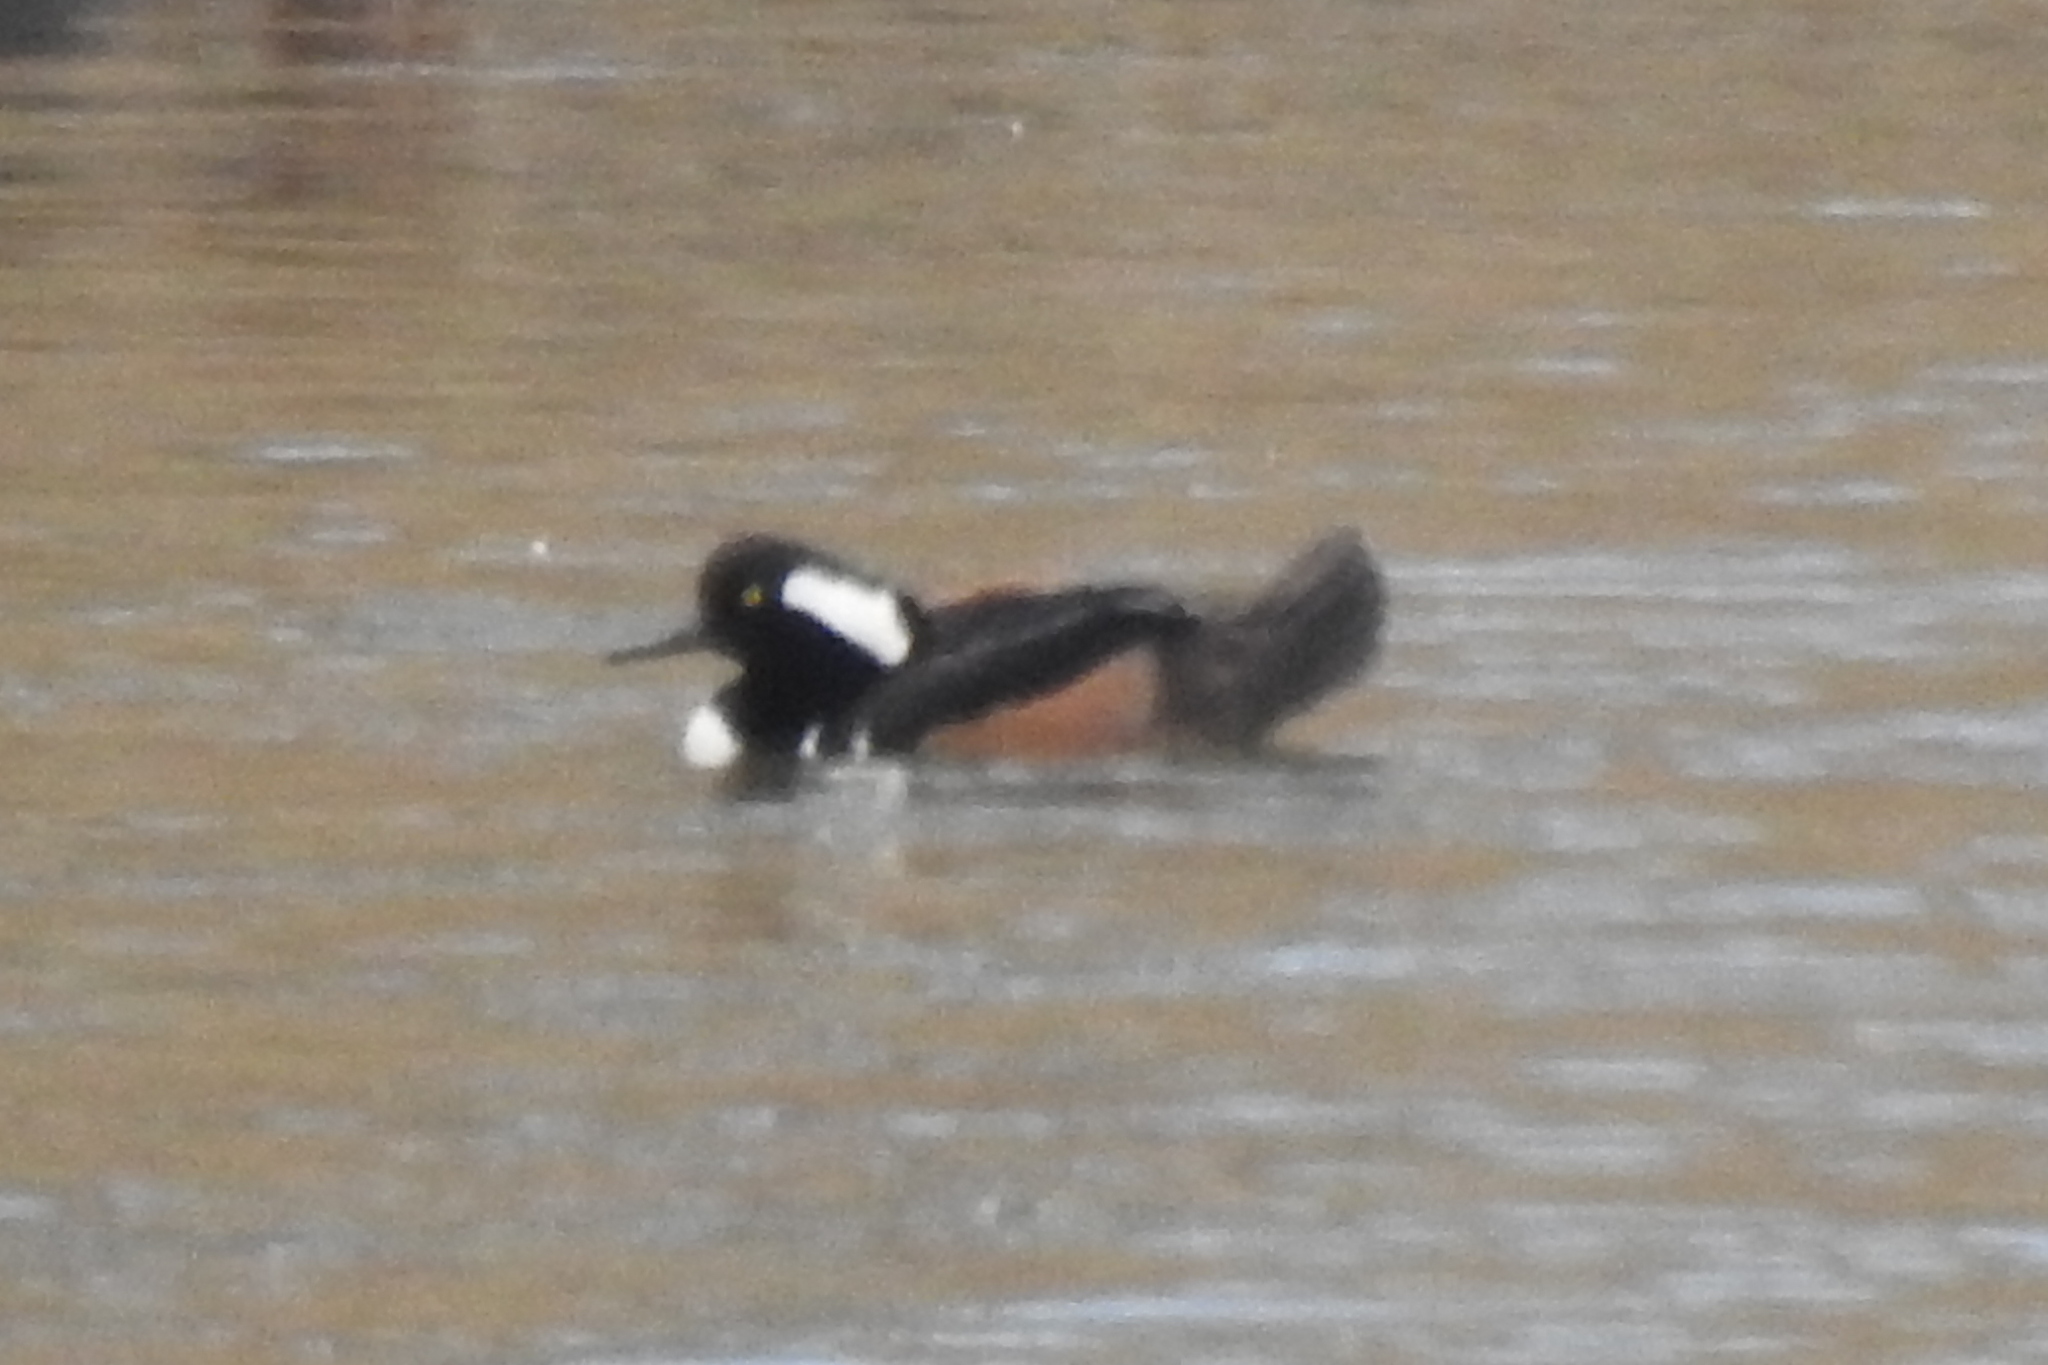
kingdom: Animalia
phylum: Chordata
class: Aves
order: Anseriformes
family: Anatidae
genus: Lophodytes
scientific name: Lophodytes cucullatus
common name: Hooded merganser
